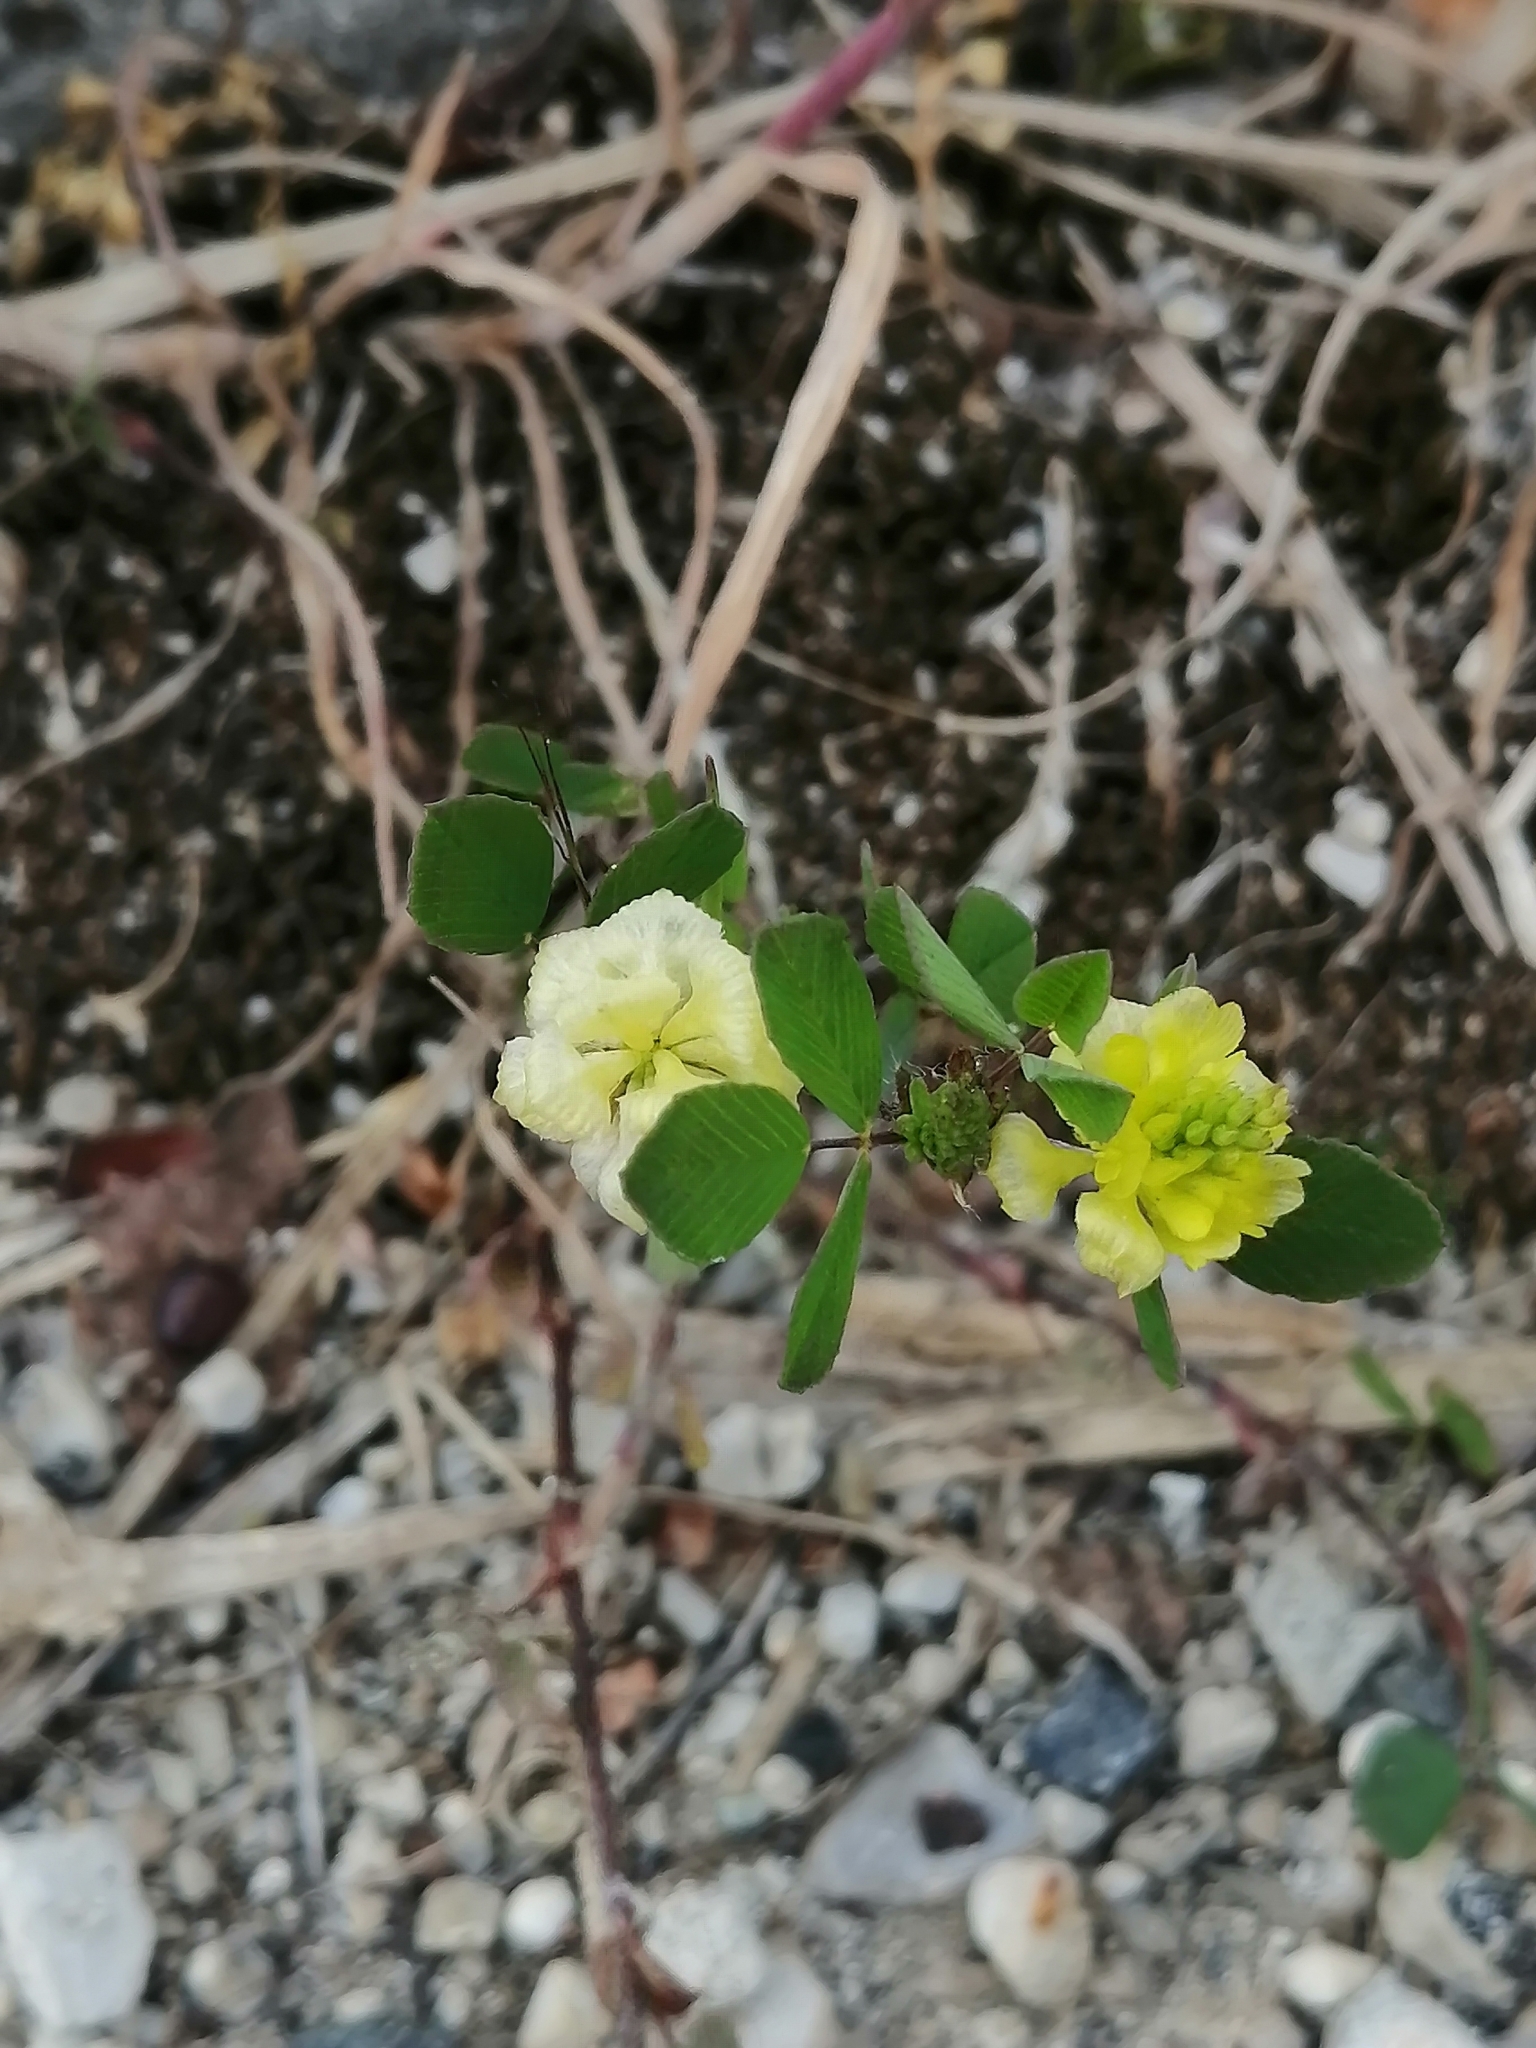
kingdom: Plantae
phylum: Tracheophyta
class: Magnoliopsida
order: Fabales
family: Fabaceae
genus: Trifolium
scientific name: Trifolium campestre
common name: Field clover
